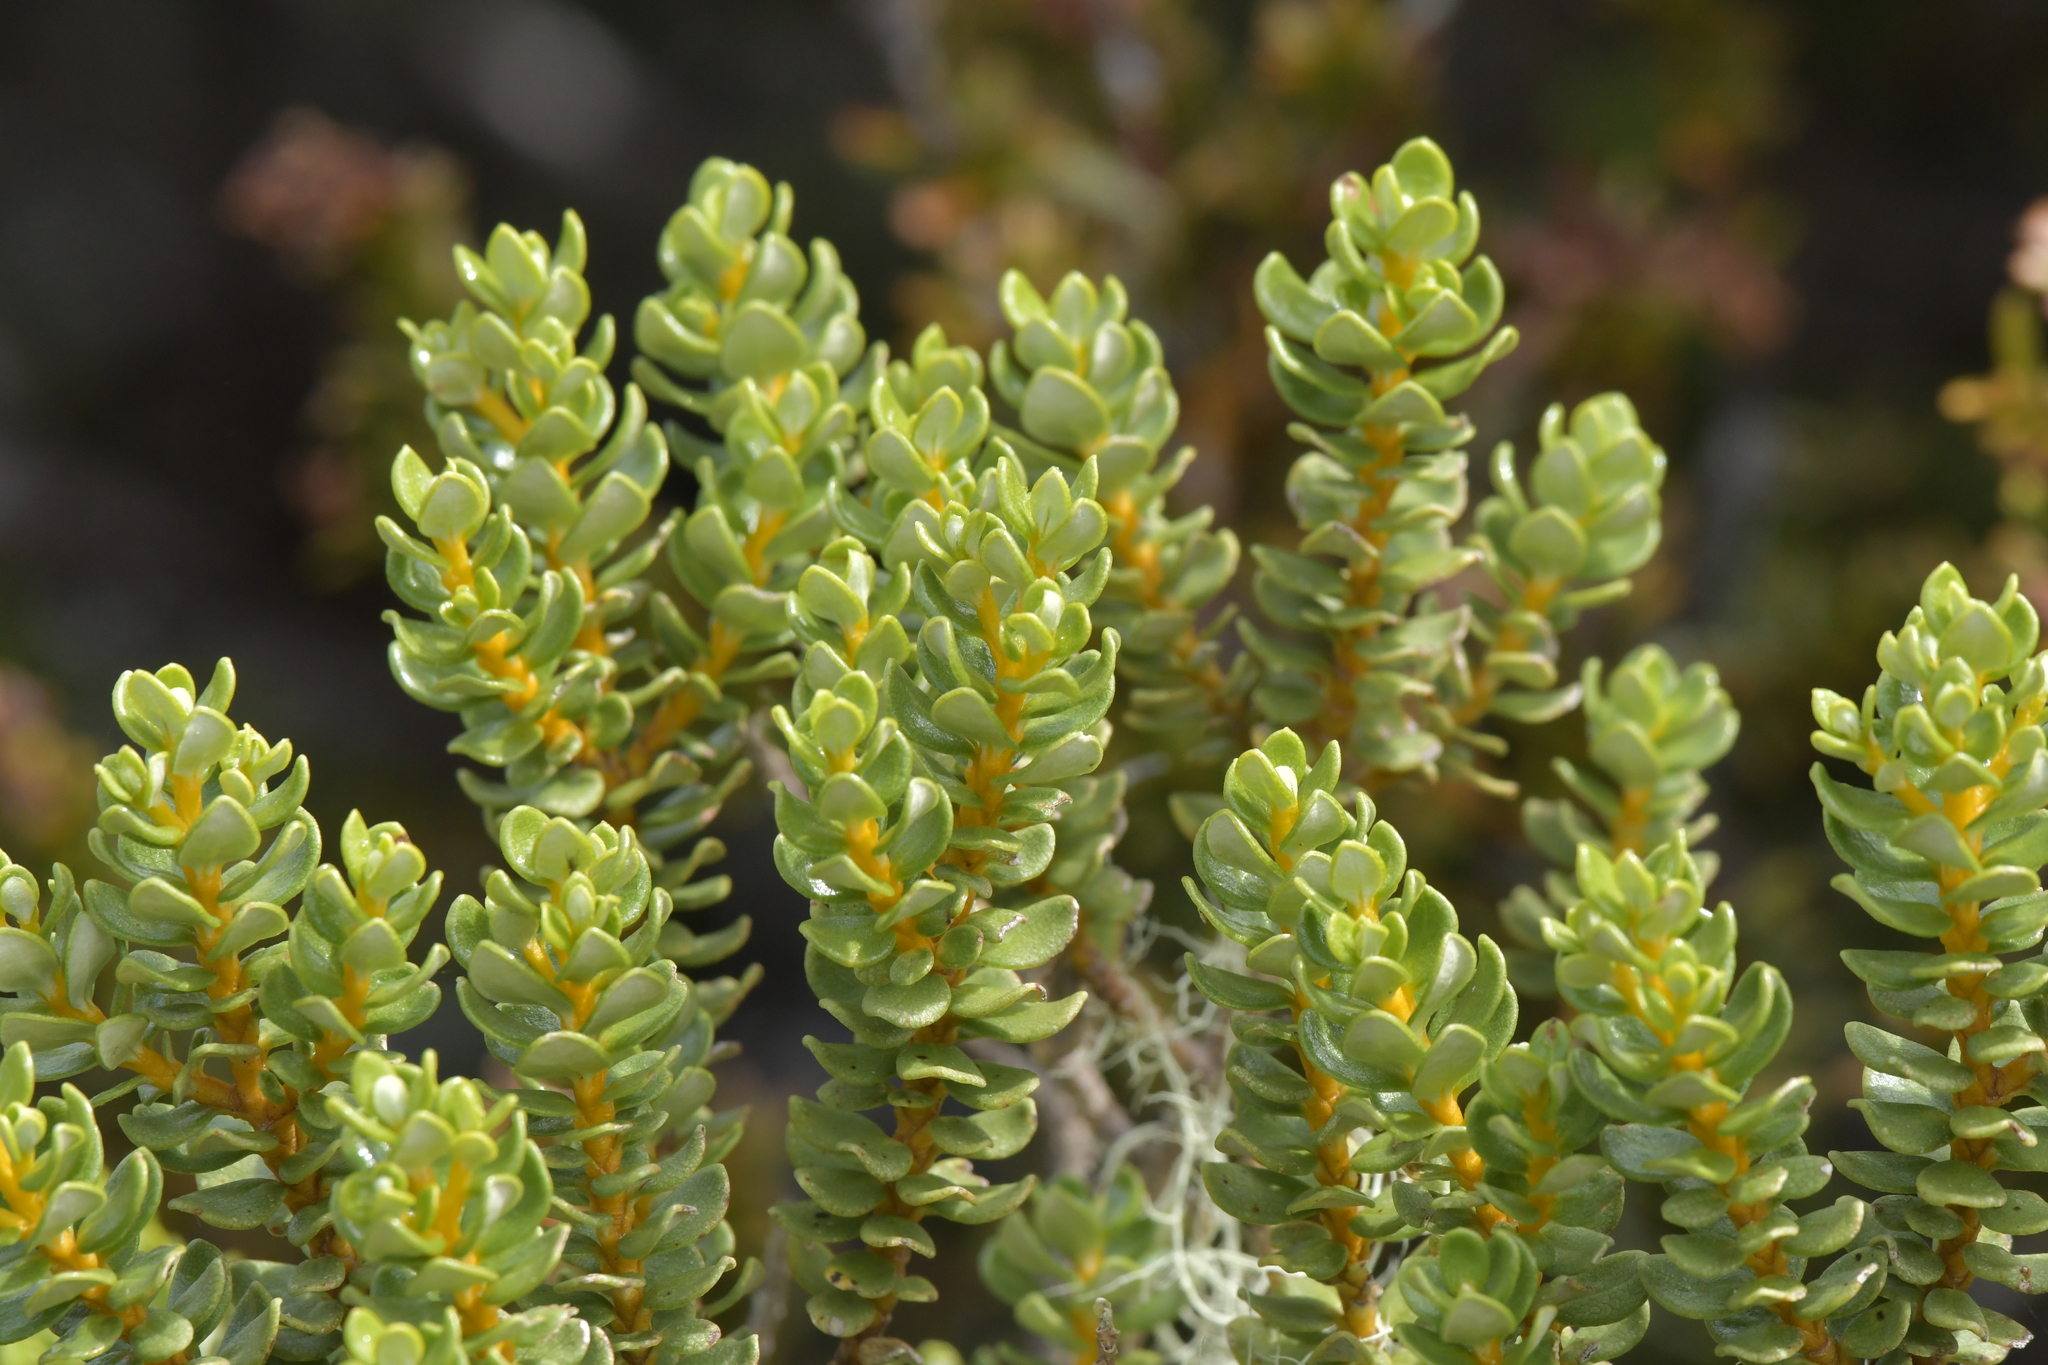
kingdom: Plantae
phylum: Tracheophyta
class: Magnoliopsida
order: Asterales
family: Asteraceae
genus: Olearia
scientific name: Olearia nummularifolia
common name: Sticky daisybush
